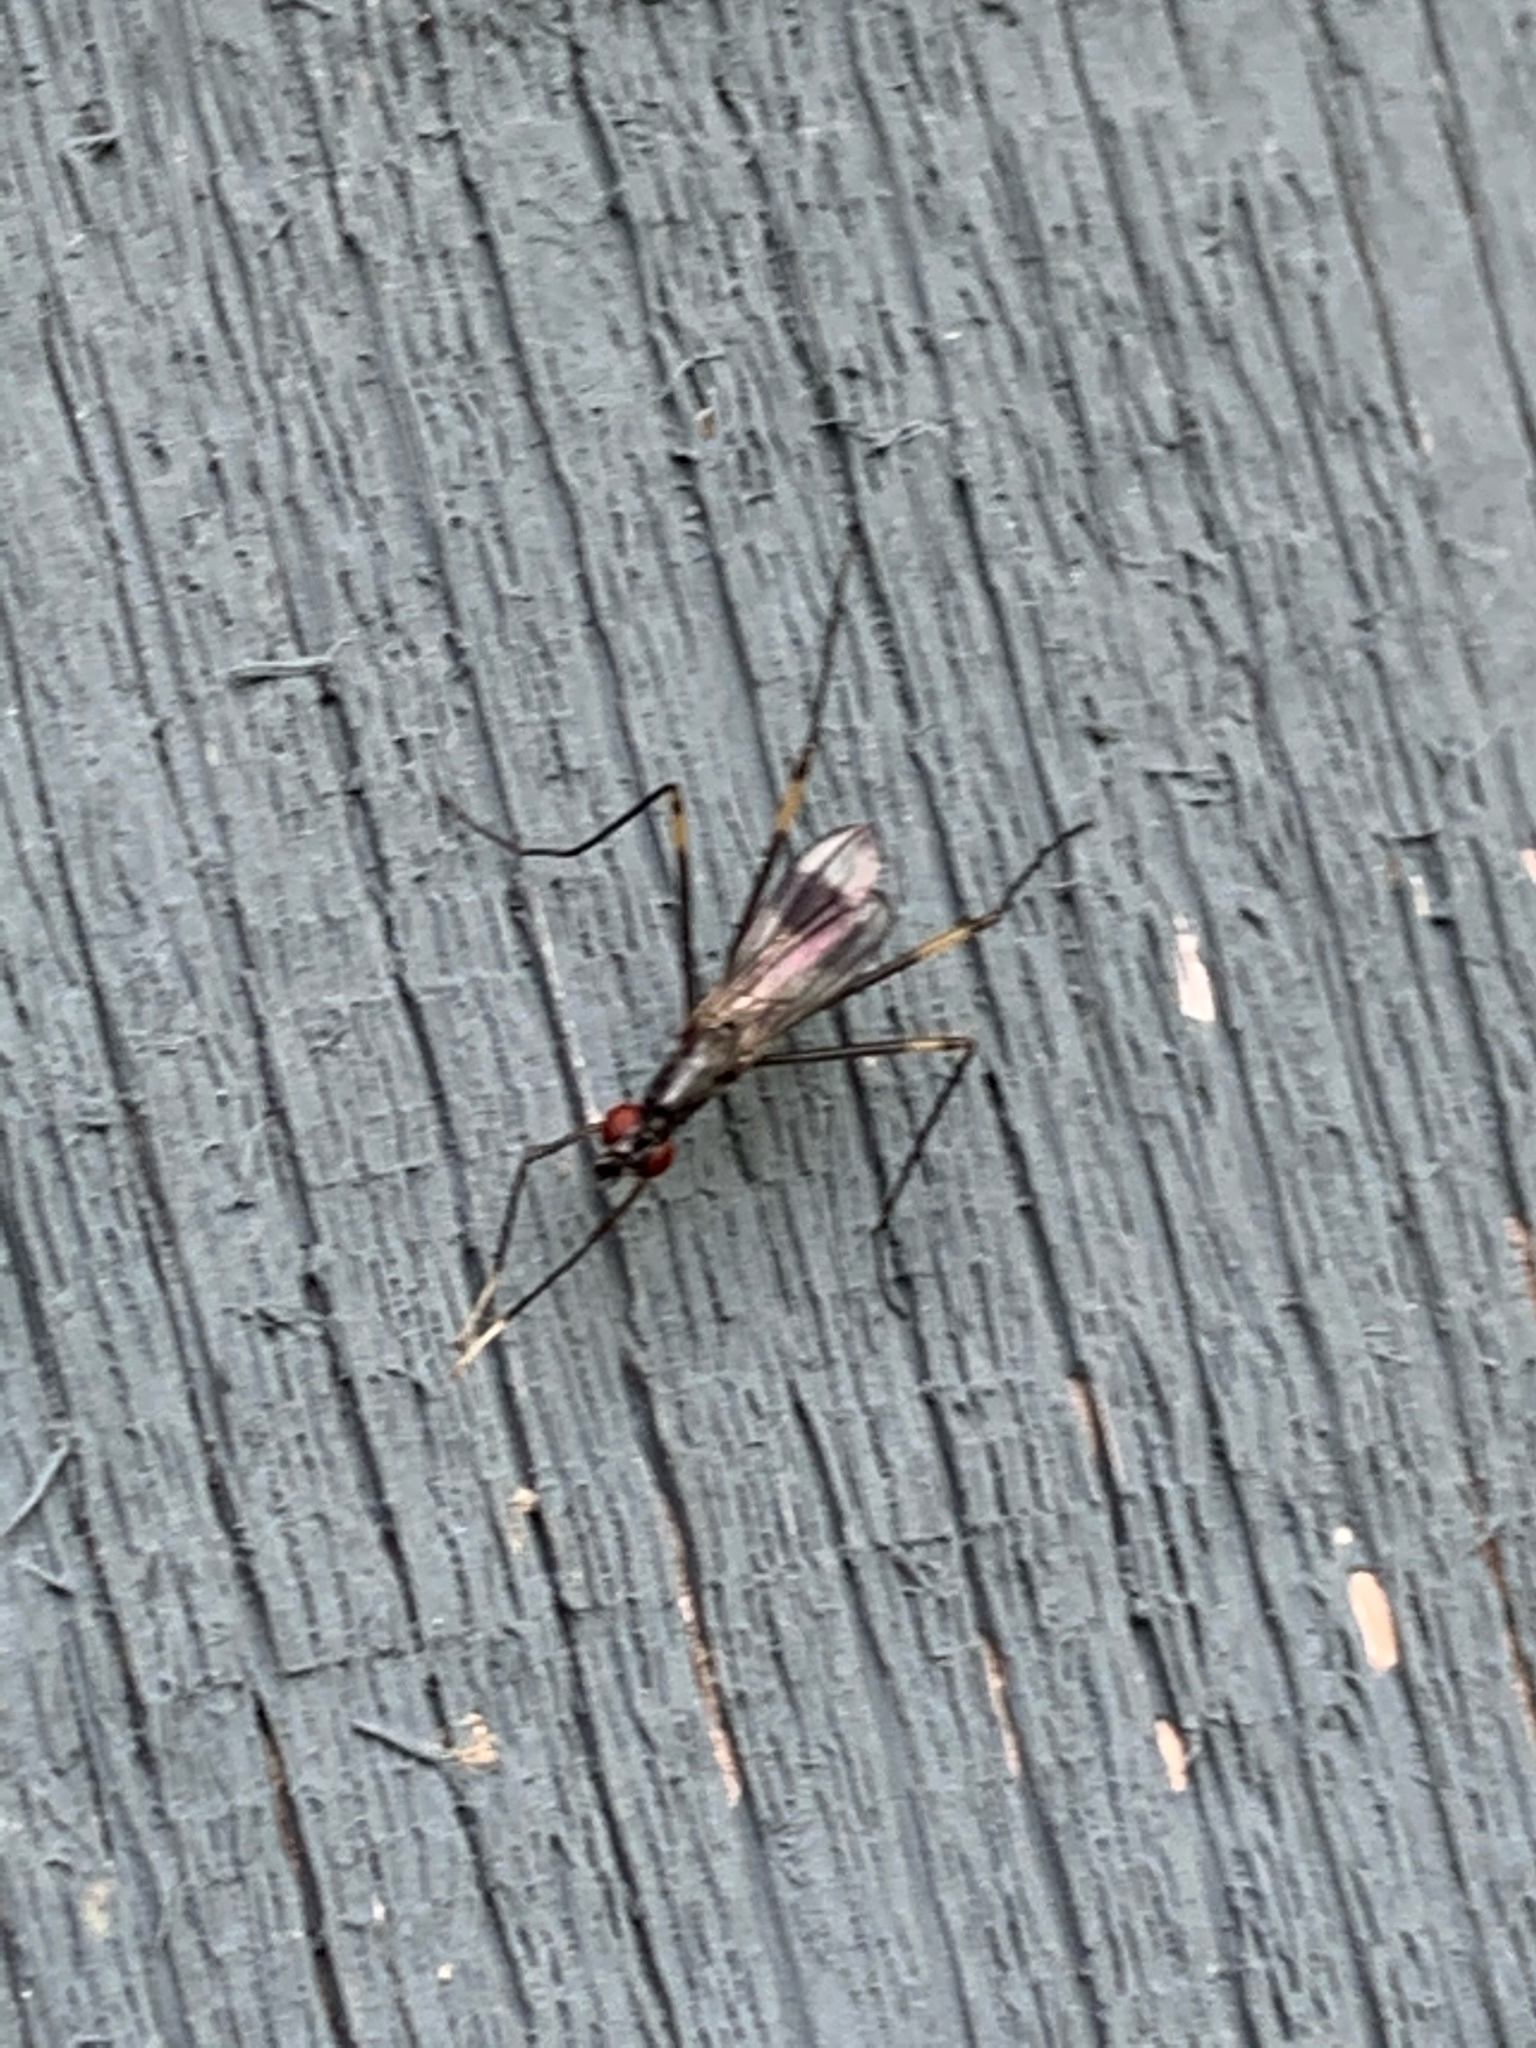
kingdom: Animalia
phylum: Arthropoda
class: Insecta
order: Diptera
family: Micropezidae
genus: Rainieria
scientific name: Rainieria antennaepes
